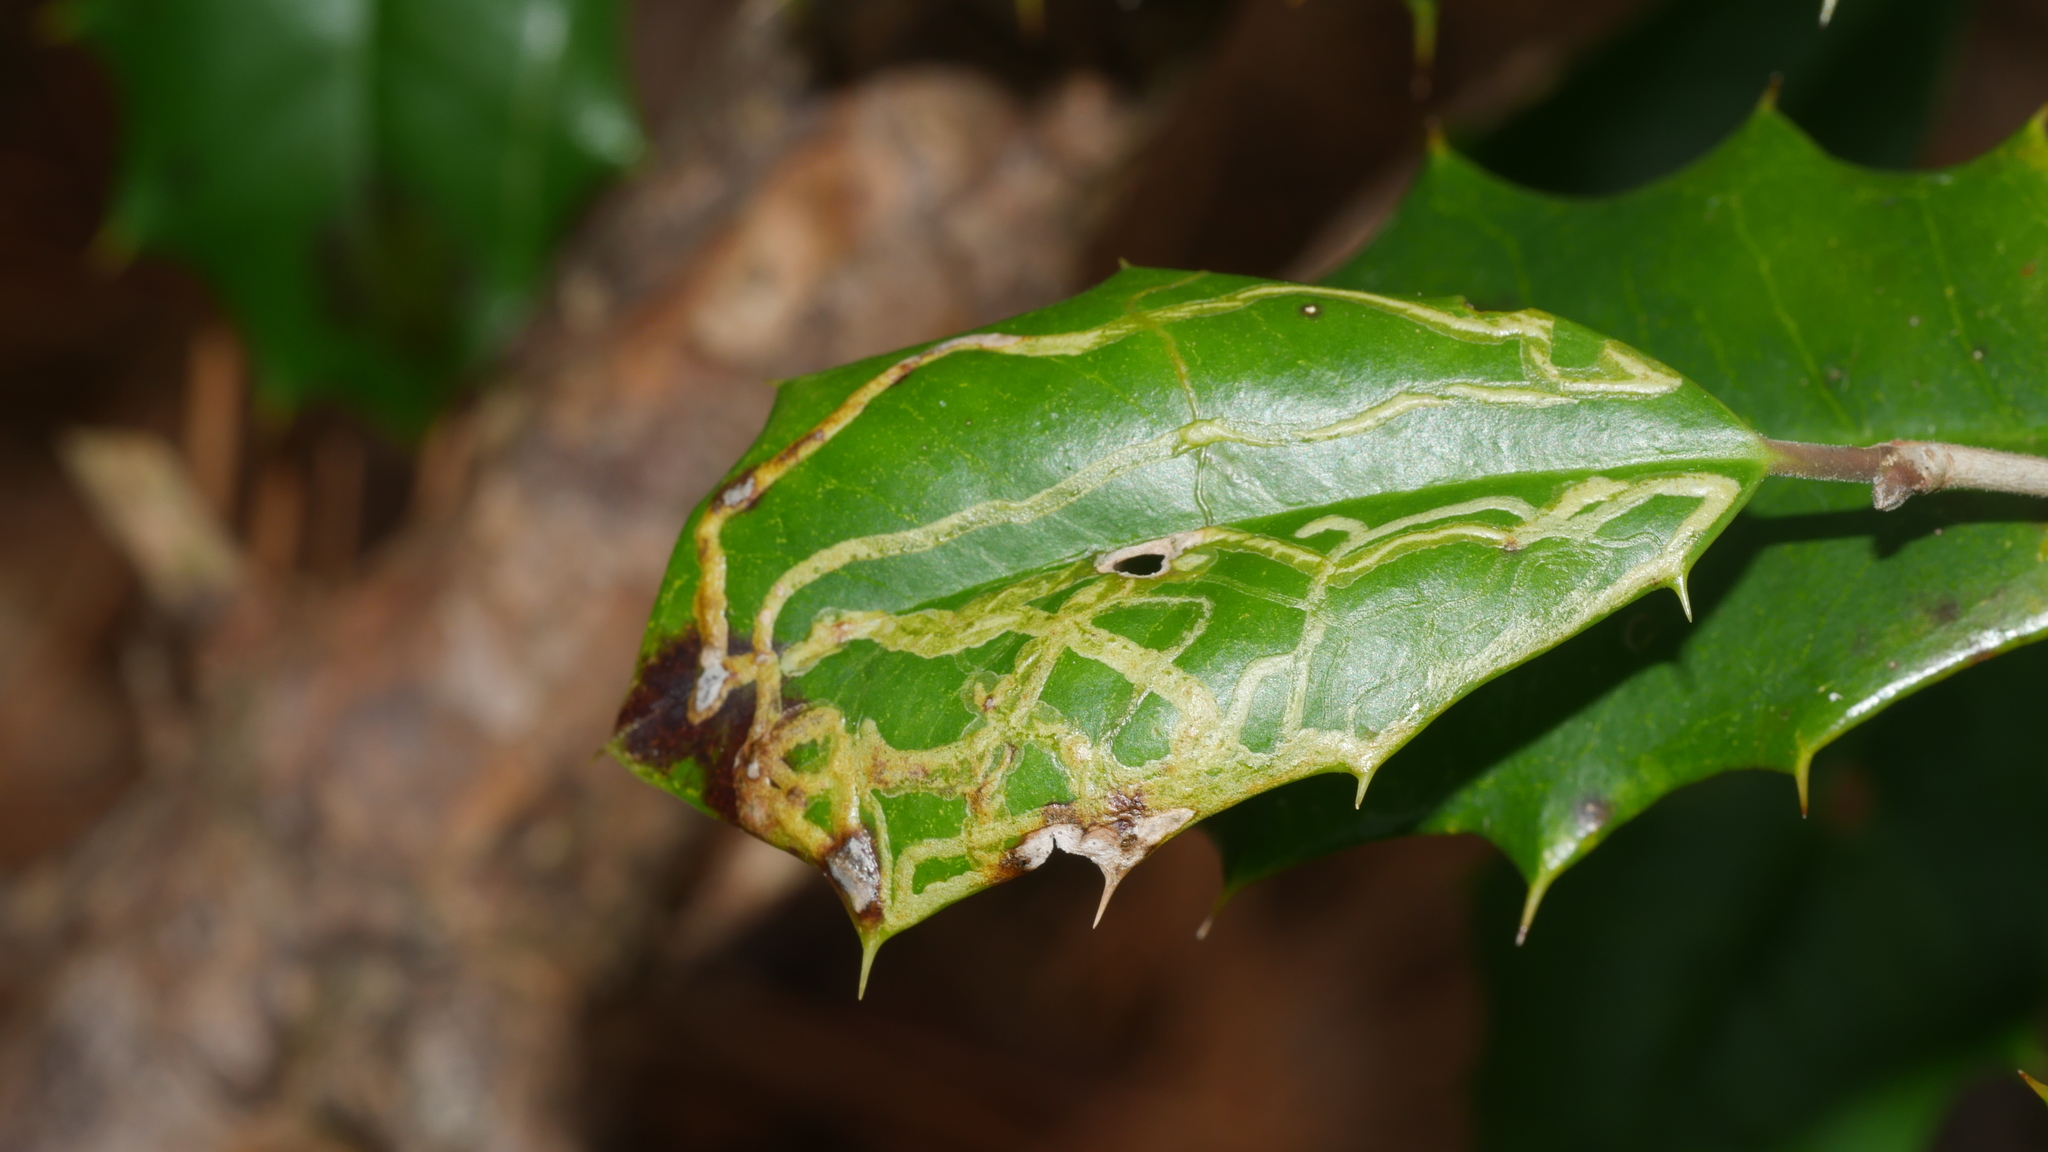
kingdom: Animalia
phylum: Arthropoda
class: Insecta
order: Diptera
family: Agromyzidae
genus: Phytomyza
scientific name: Phytomyza opacae
